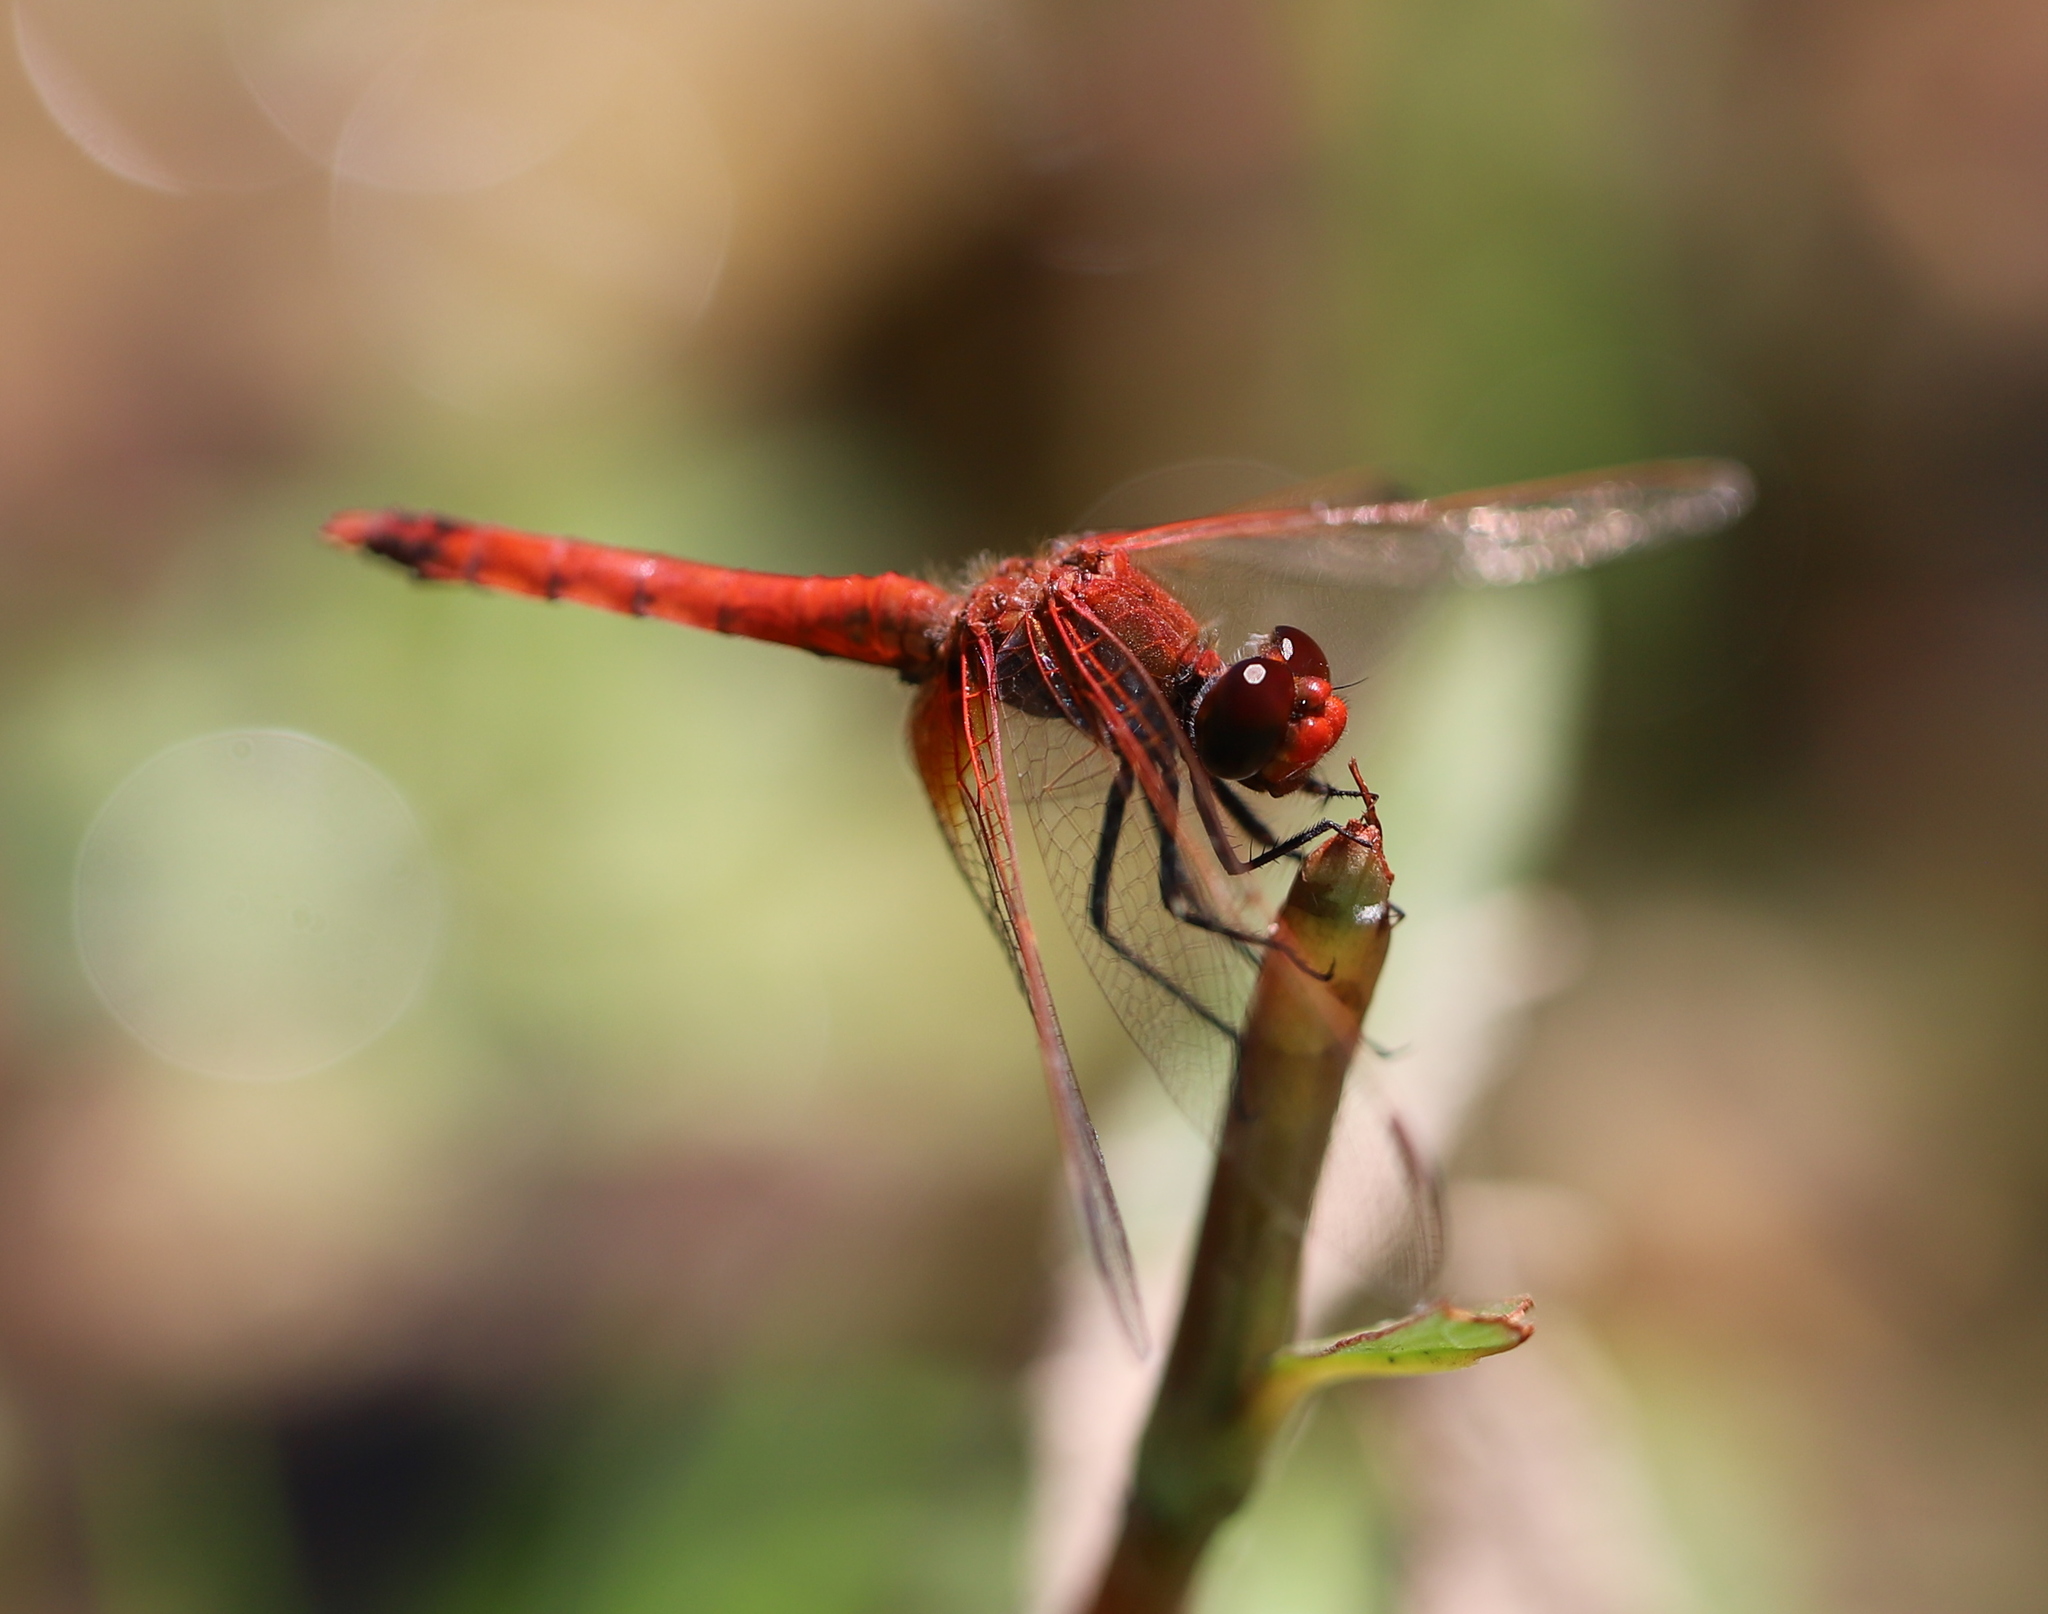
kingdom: Animalia
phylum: Arthropoda
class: Insecta
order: Odonata
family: Libellulidae
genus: Erythrodiplax
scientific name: Erythrodiplax corallina
